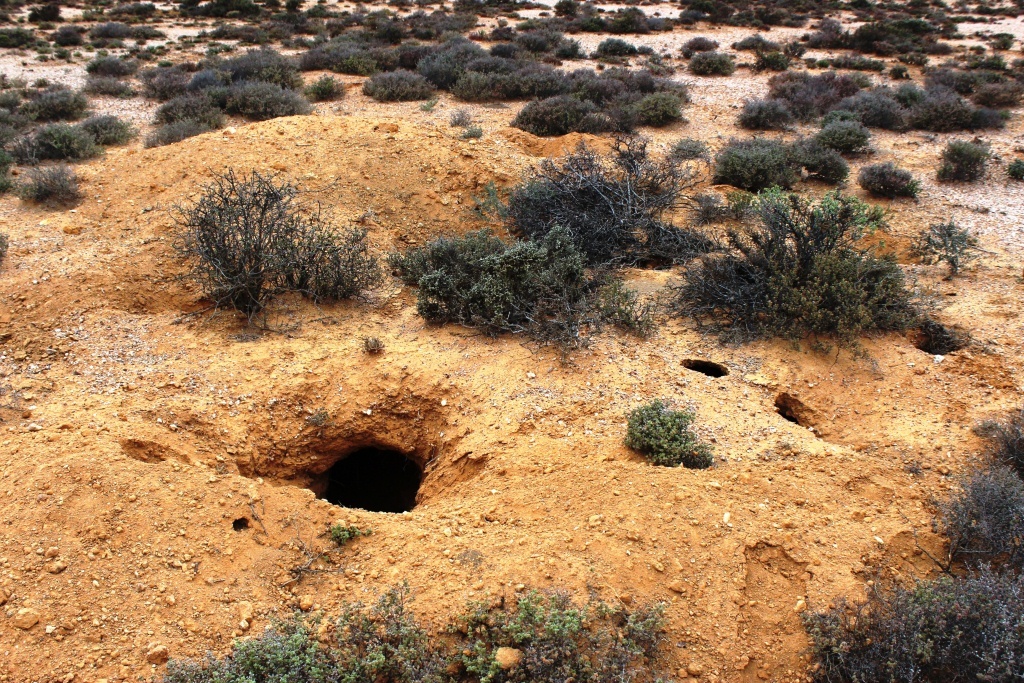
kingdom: Animalia
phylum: Chordata
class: Mammalia
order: Carnivora
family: Canidae
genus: Otocyon
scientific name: Otocyon megalotis
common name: Bat-eared fox
